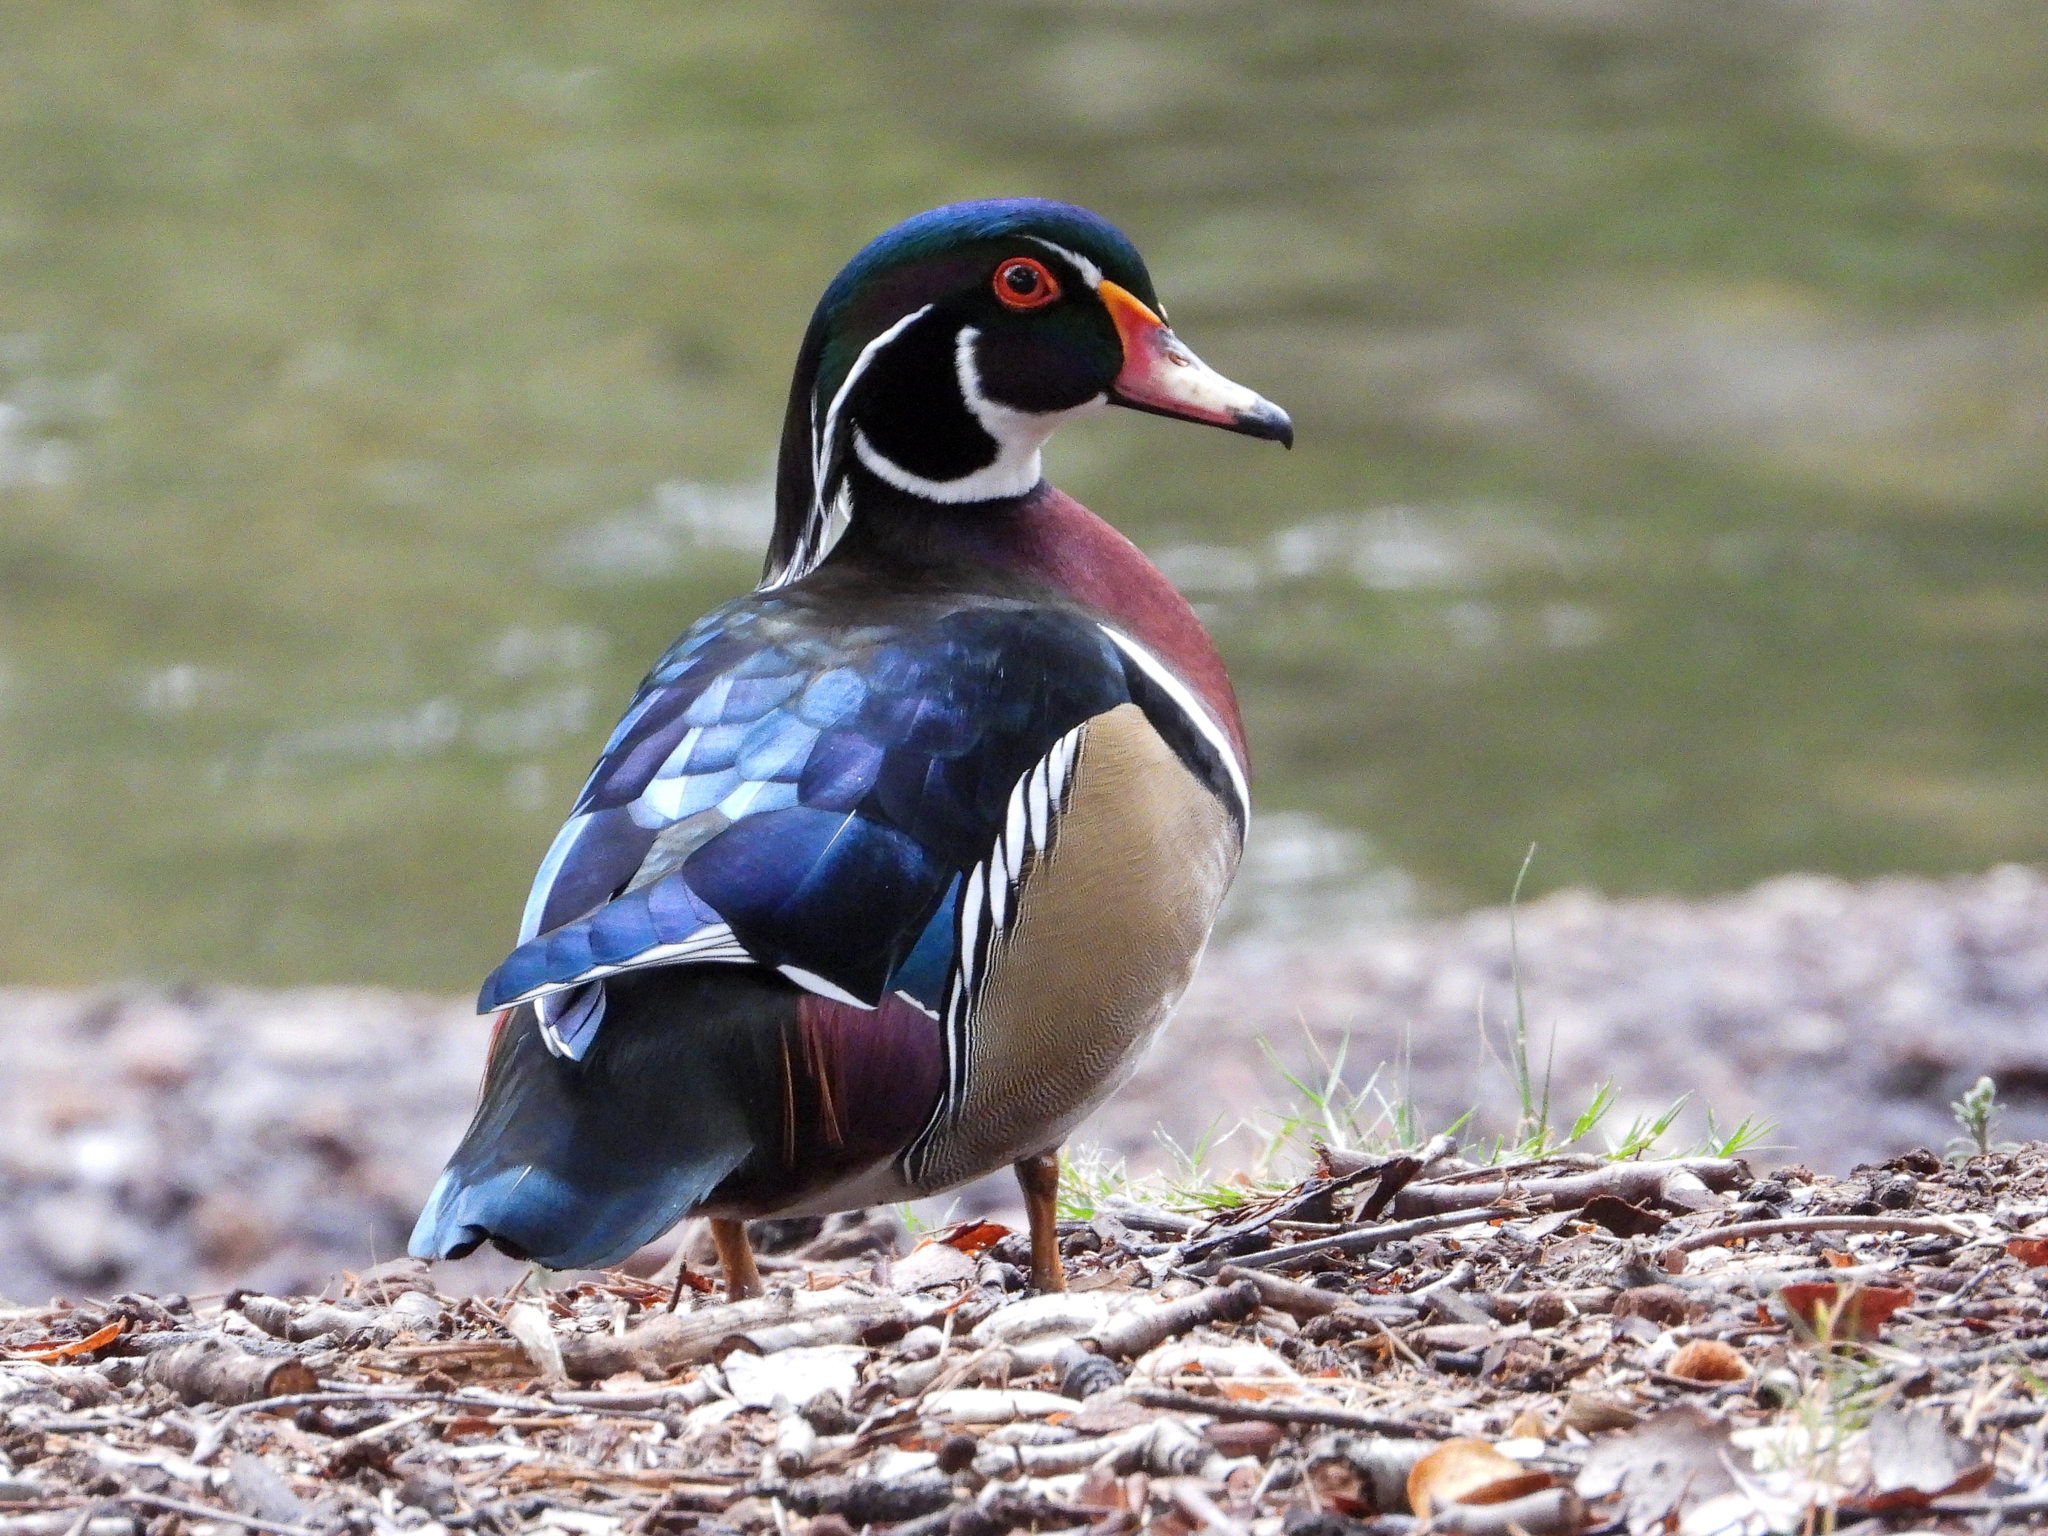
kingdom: Animalia
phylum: Chordata
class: Aves
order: Anseriformes
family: Anatidae
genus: Aix
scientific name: Aix sponsa
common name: Wood duck
